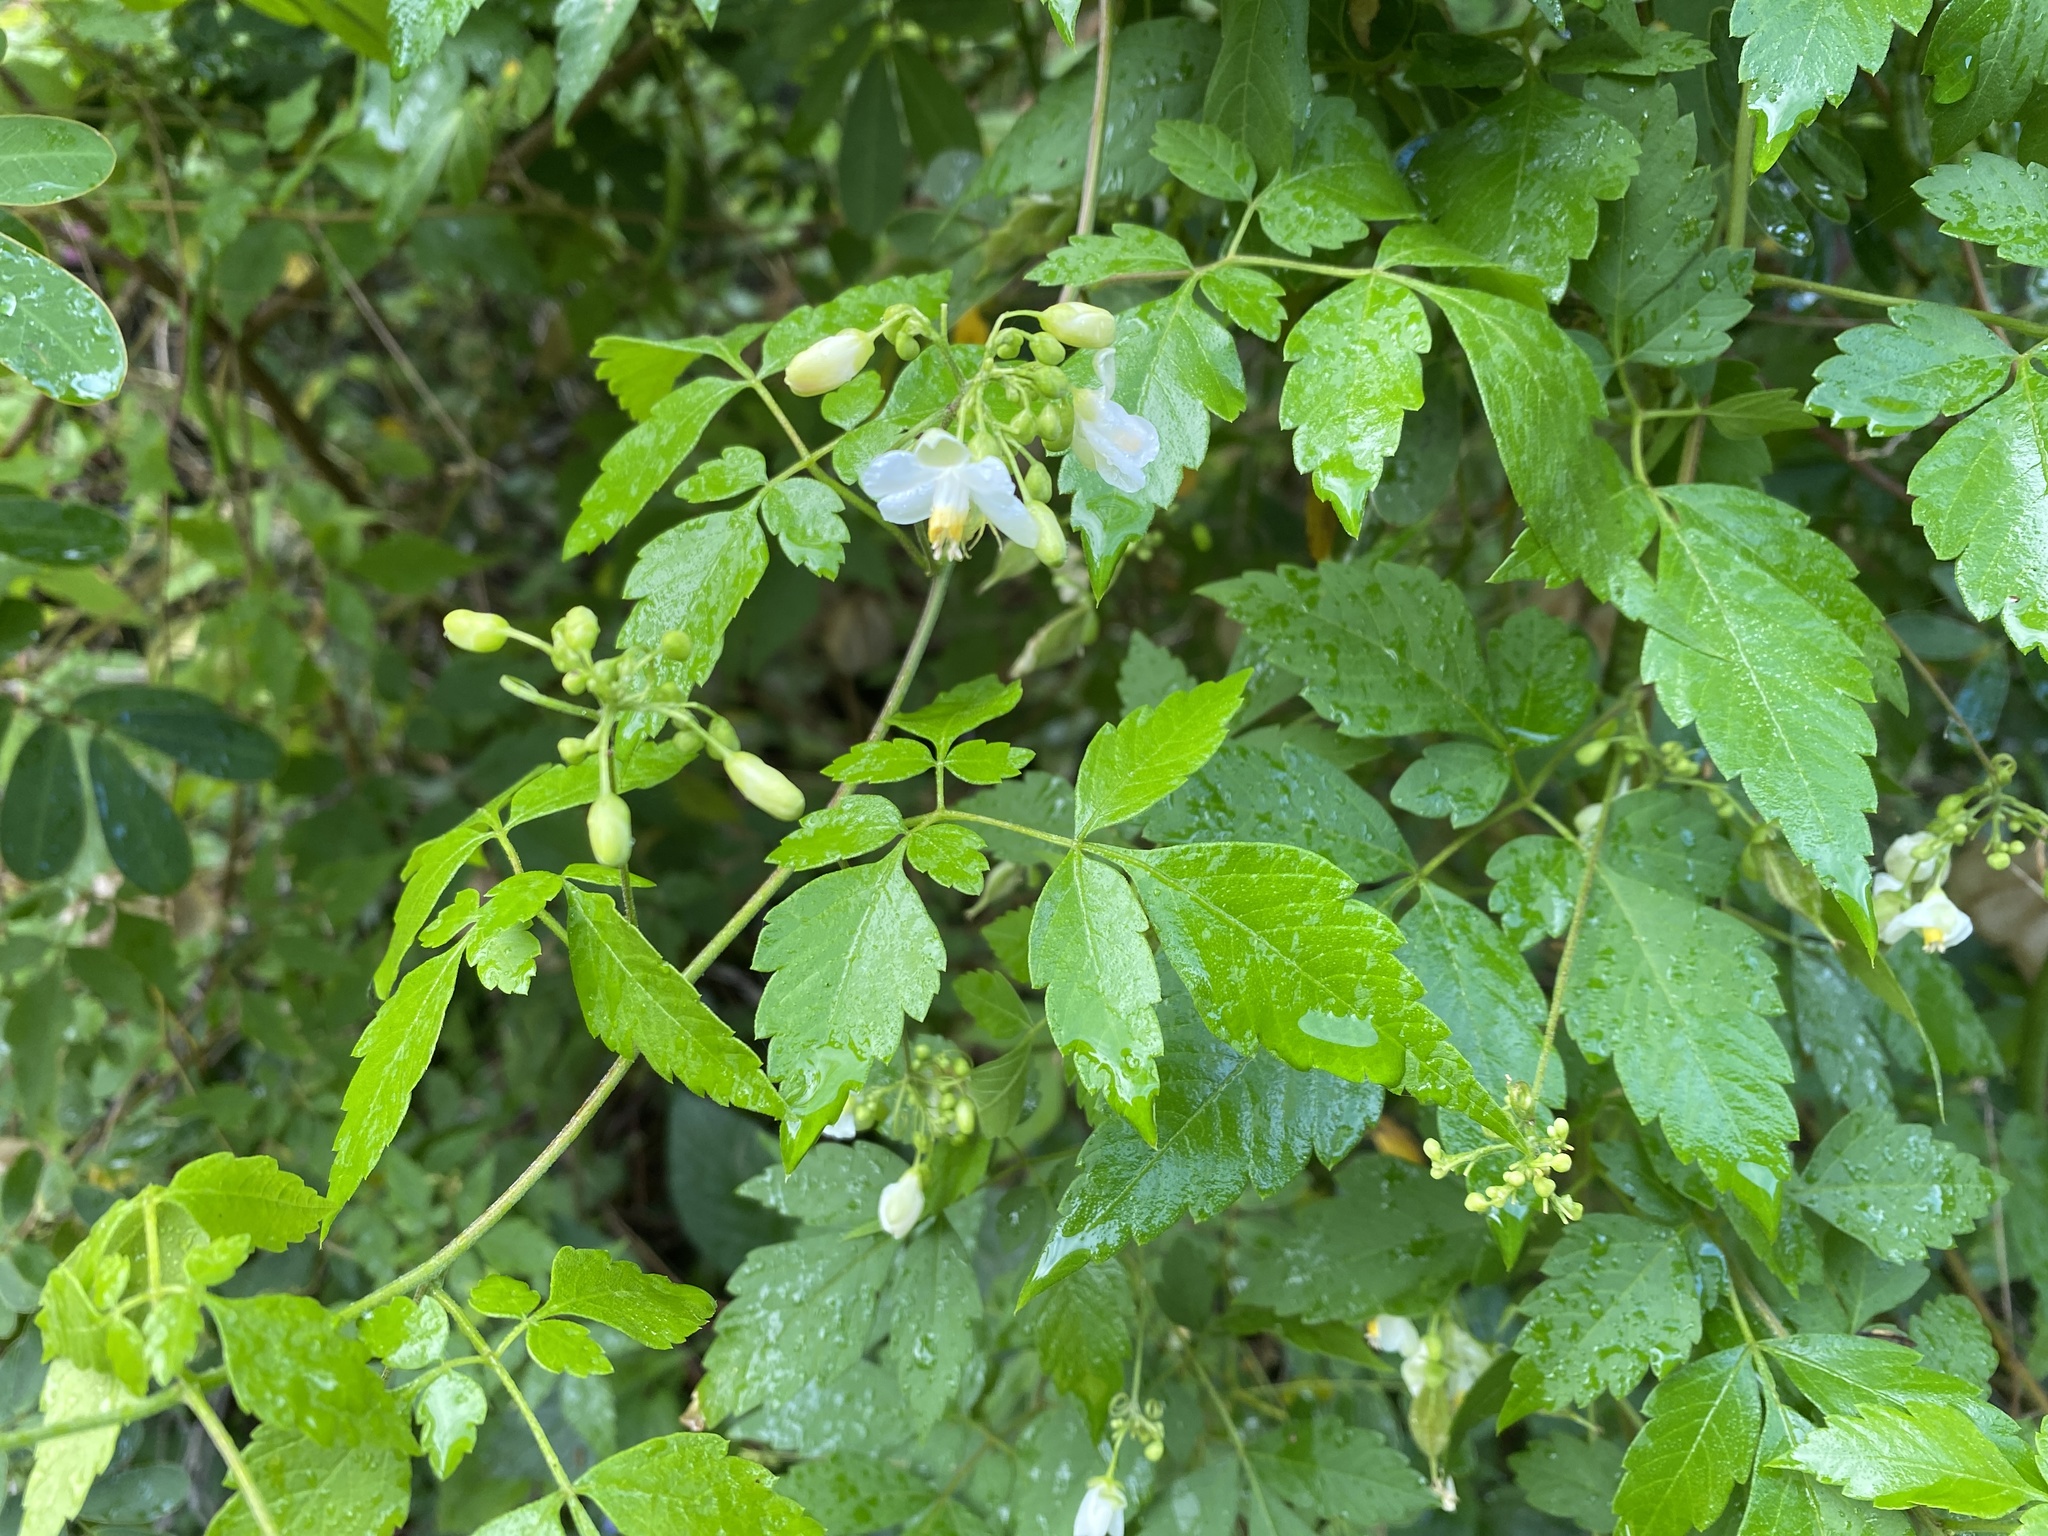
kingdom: Plantae
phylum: Tracheophyta
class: Magnoliopsida
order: Sapindales
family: Sapindaceae
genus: Cardiospermum
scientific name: Cardiospermum grandiflorum
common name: Balloon vine
